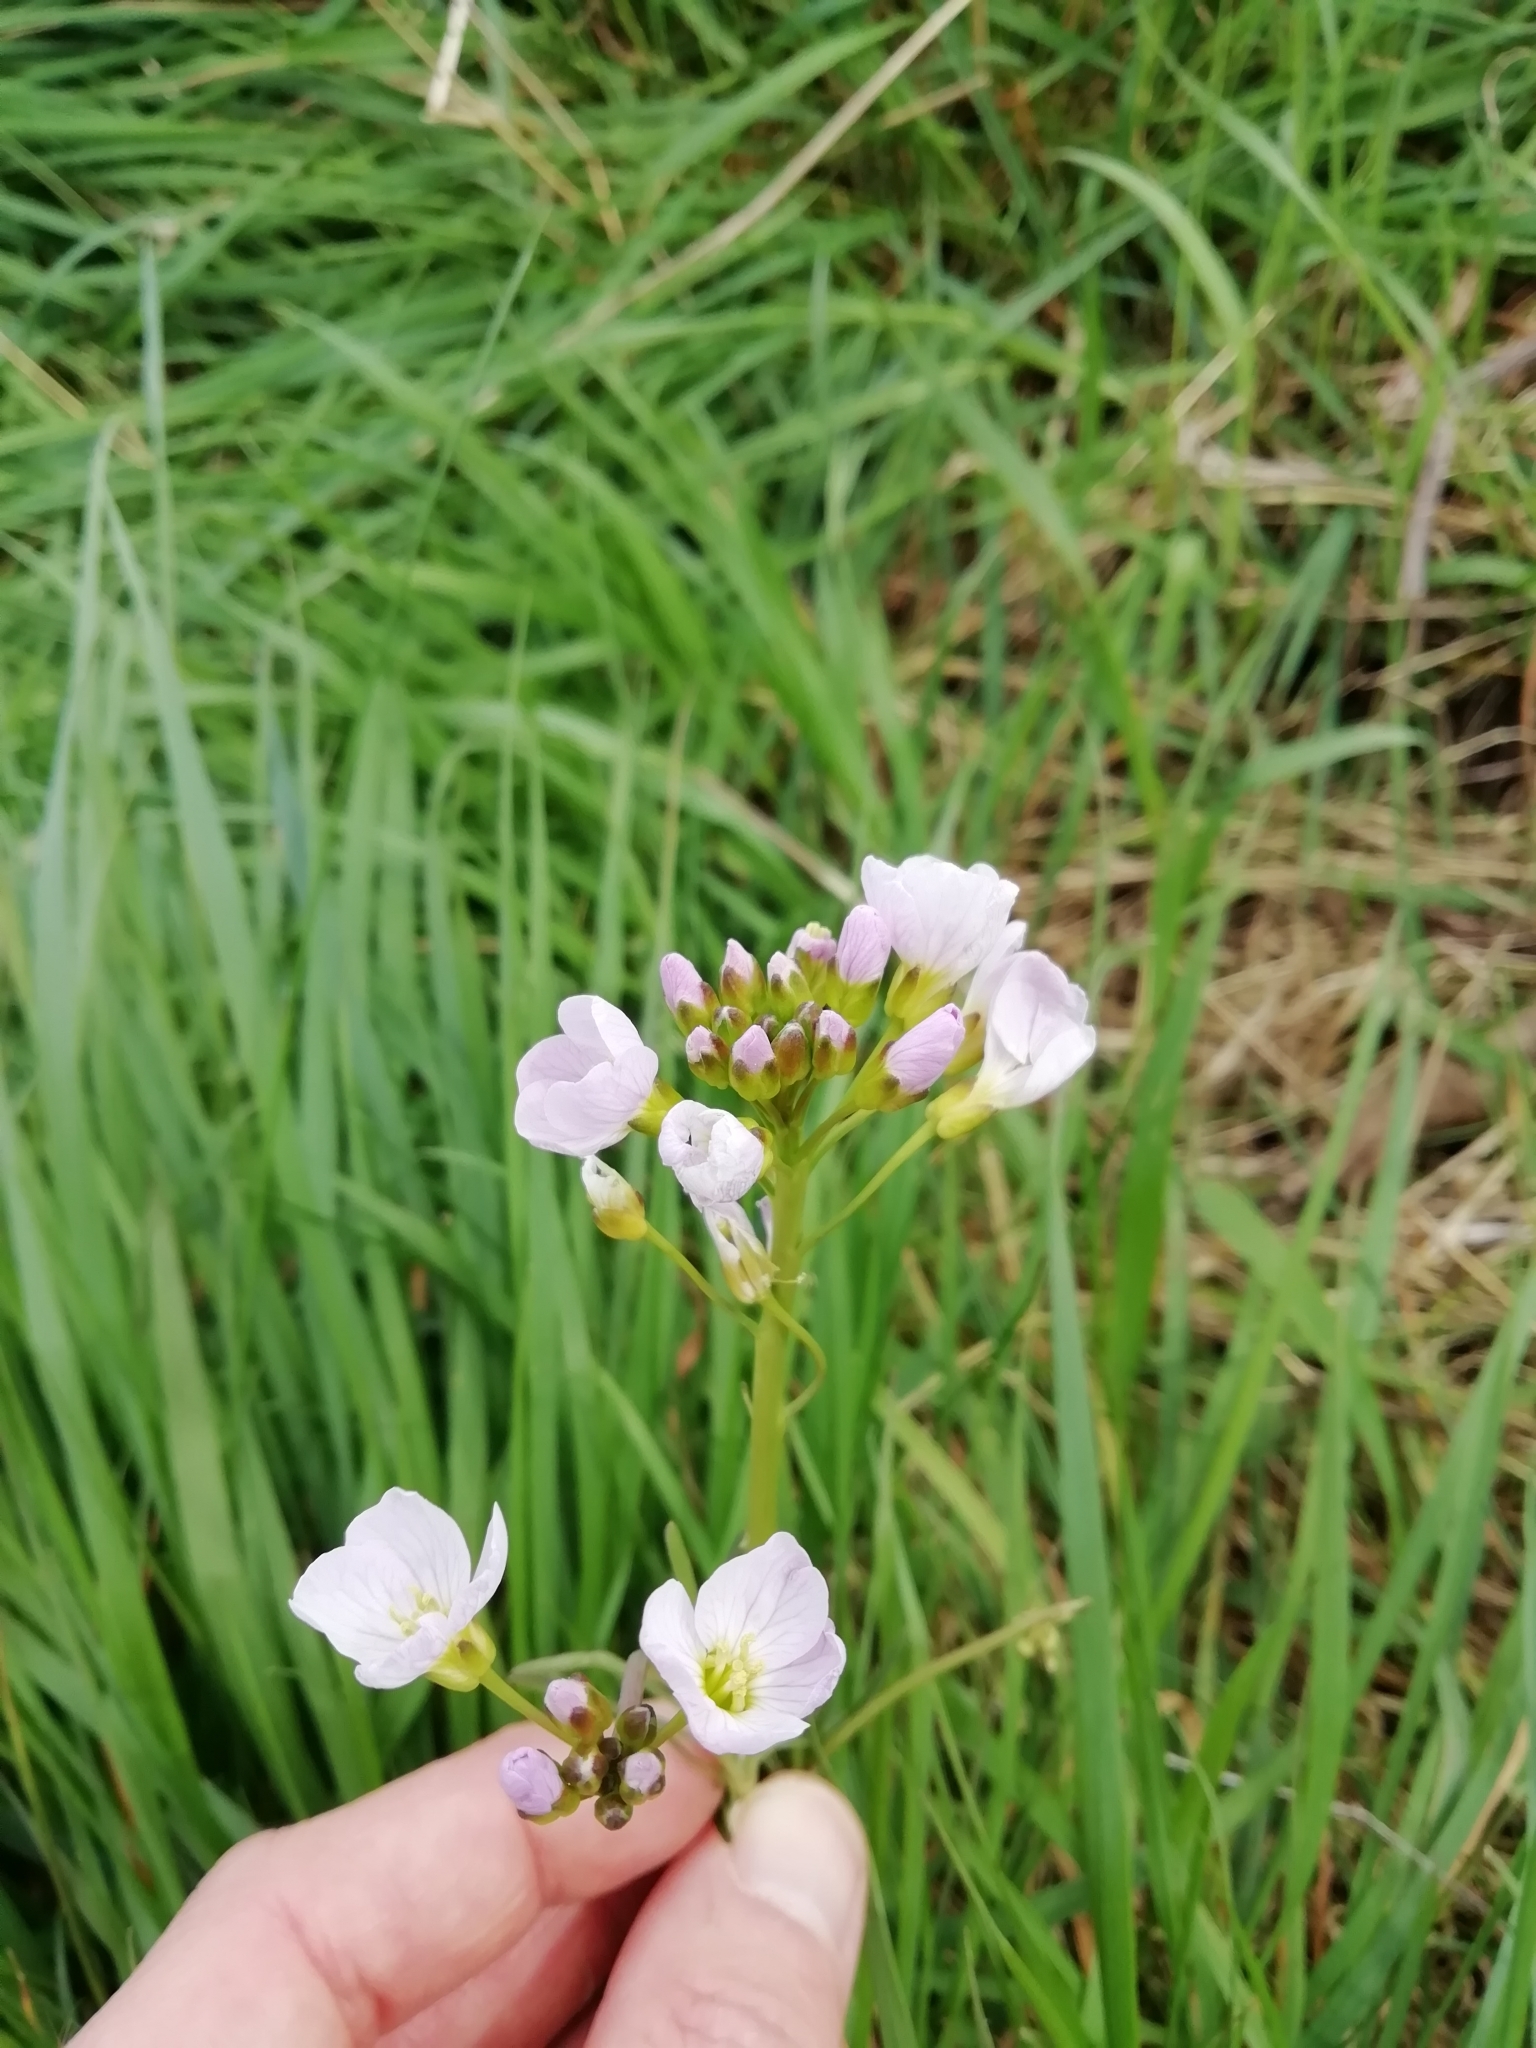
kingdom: Plantae
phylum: Tracheophyta
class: Magnoliopsida
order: Brassicales
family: Brassicaceae
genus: Cardamine
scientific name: Cardamine pratensis
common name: Cuckoo flower
